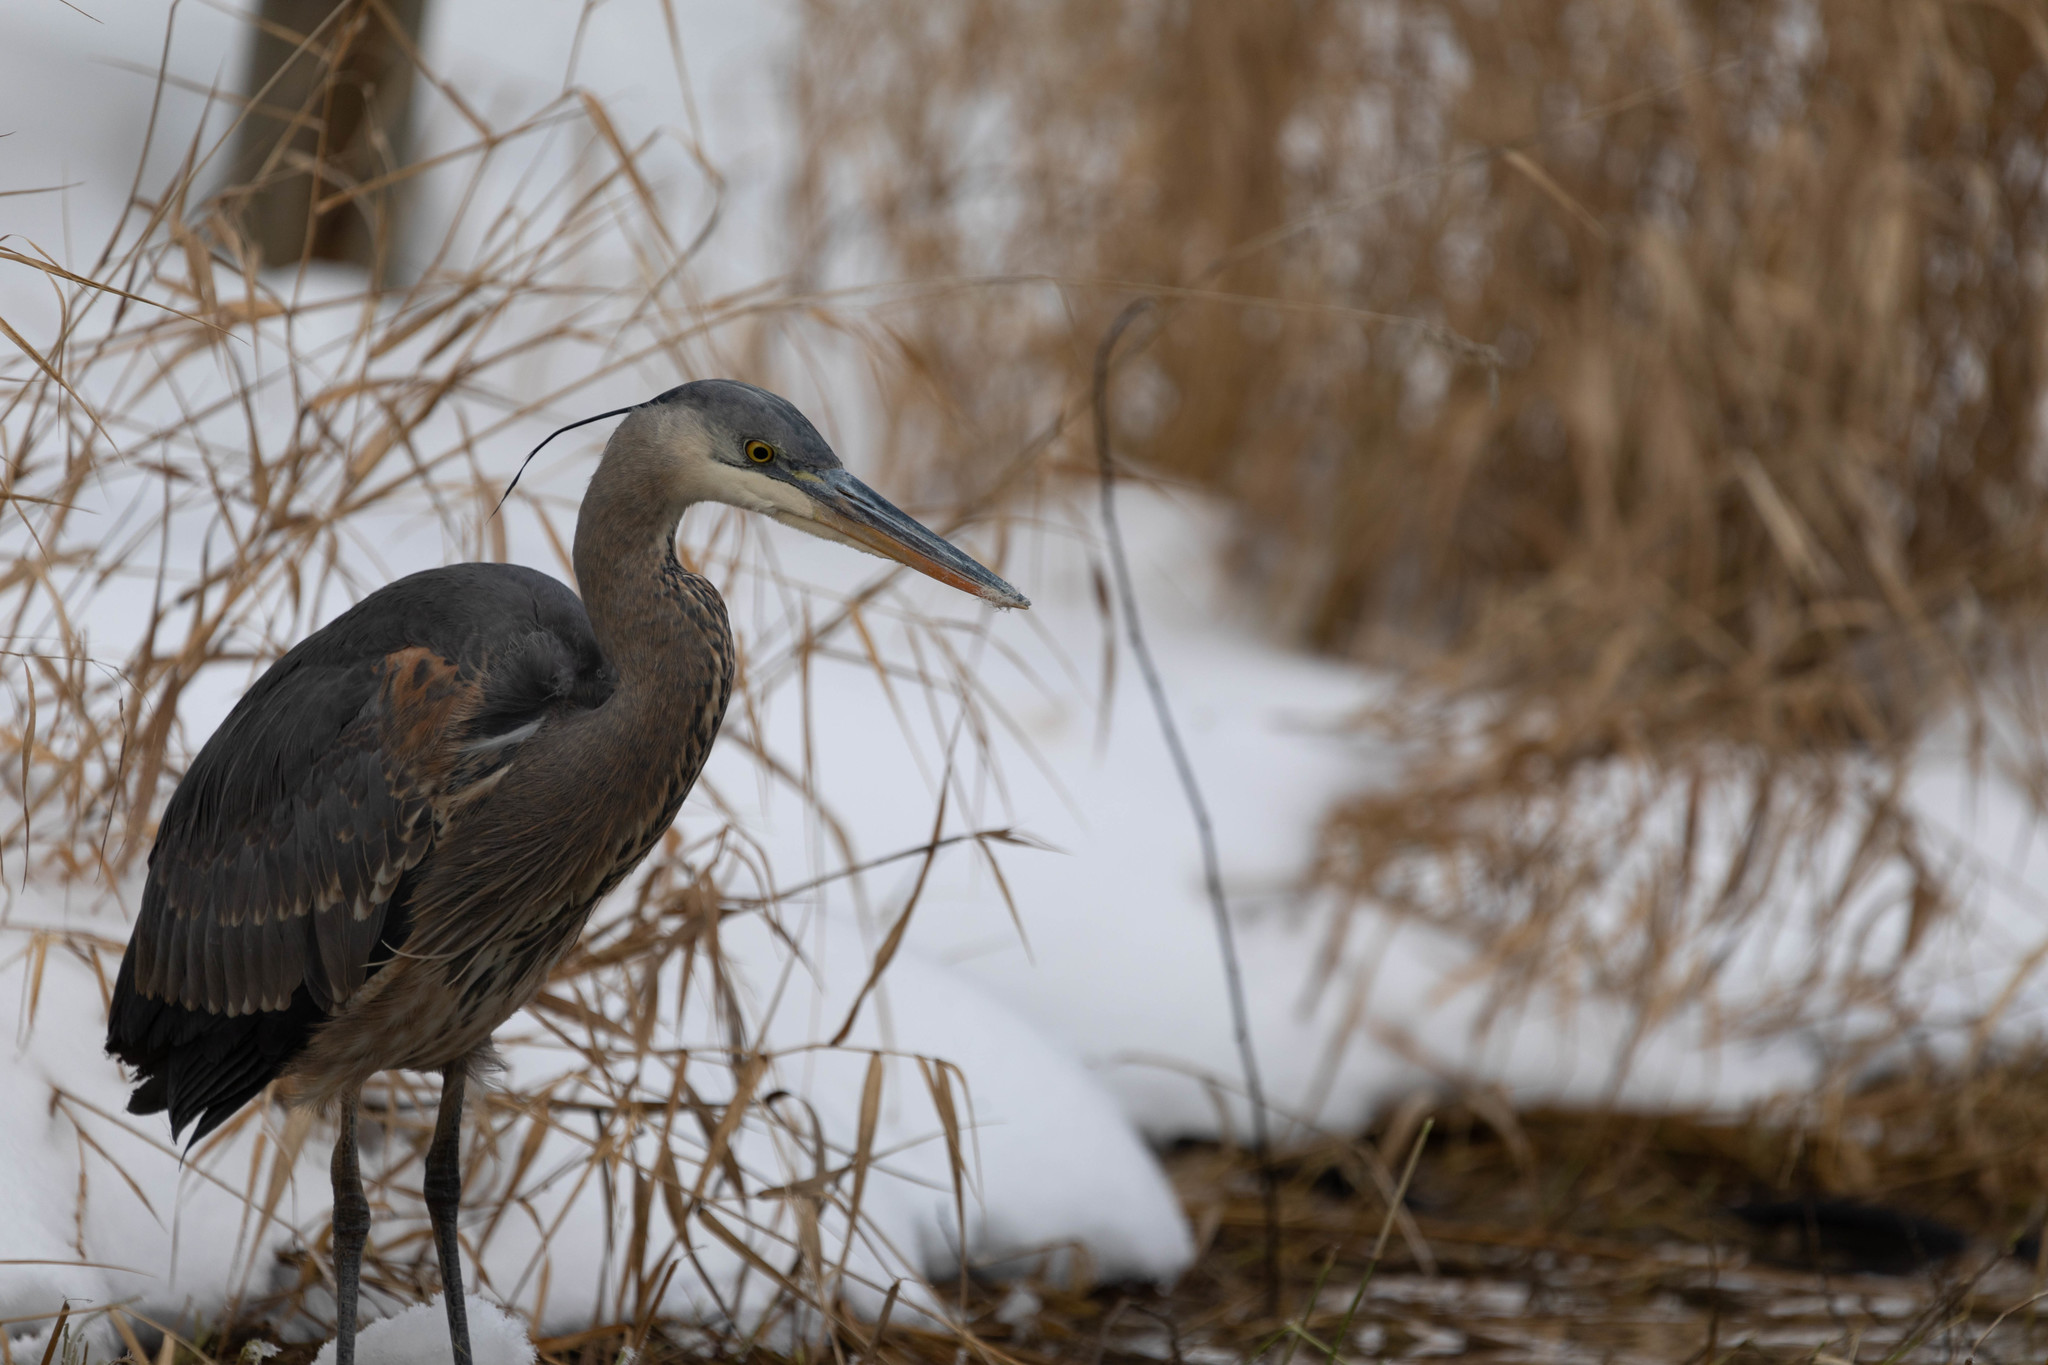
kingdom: Animalia
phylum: Chordata
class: Aves
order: Pelecaniformes
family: Ardeidae
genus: Ardea
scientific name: Ardea herodias
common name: Great blue heron
